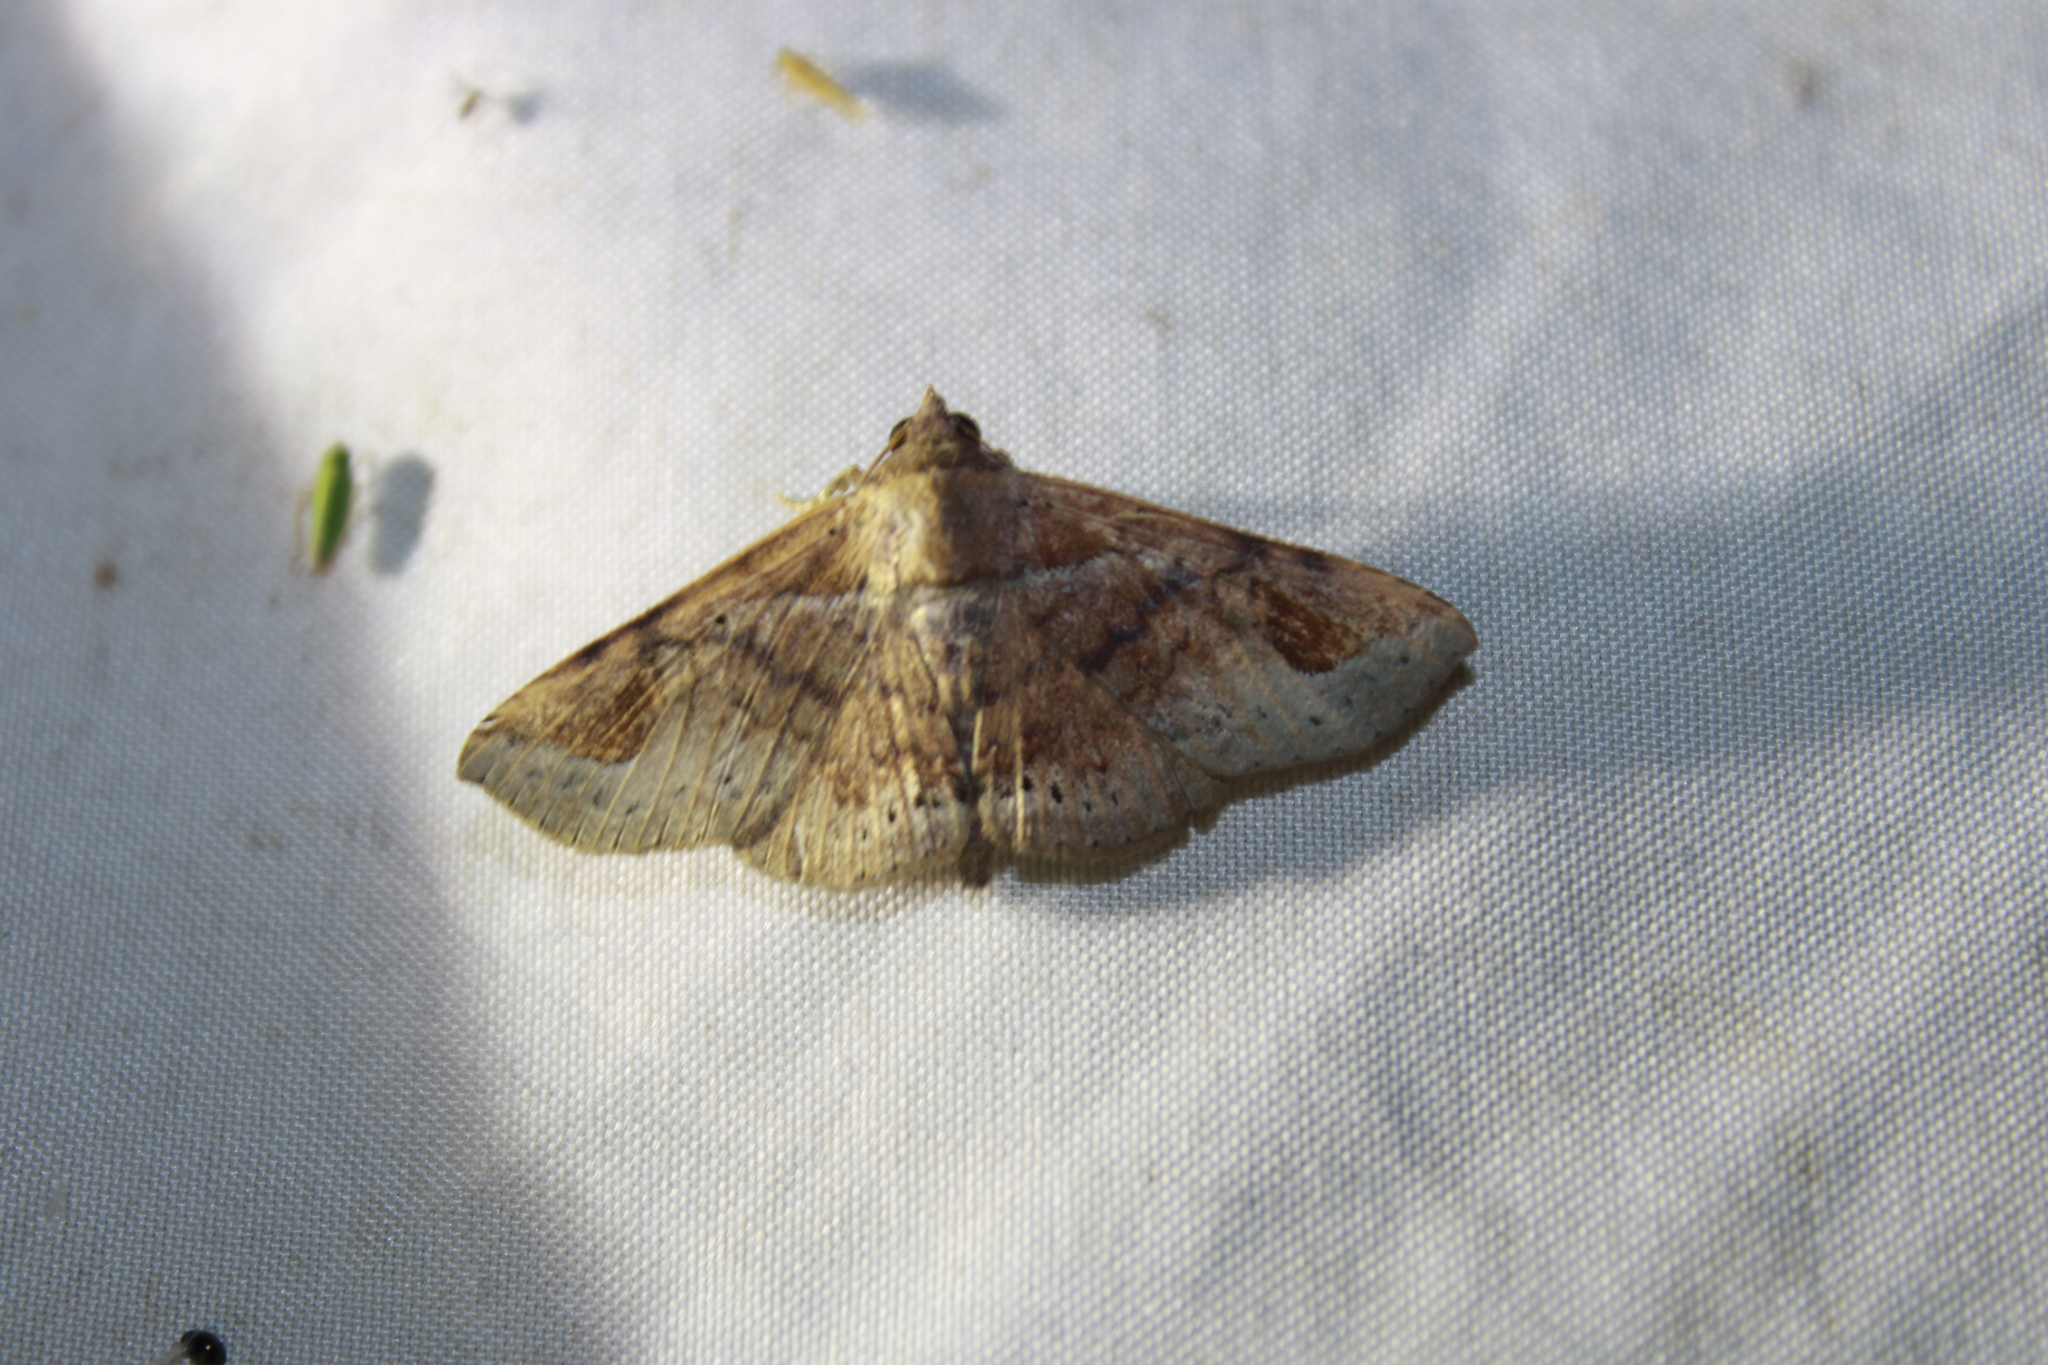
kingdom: Animalia
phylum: Arthropoda
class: Insecta
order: Lepidoptera
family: Erebidae
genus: Massala
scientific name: Massala obvertens
